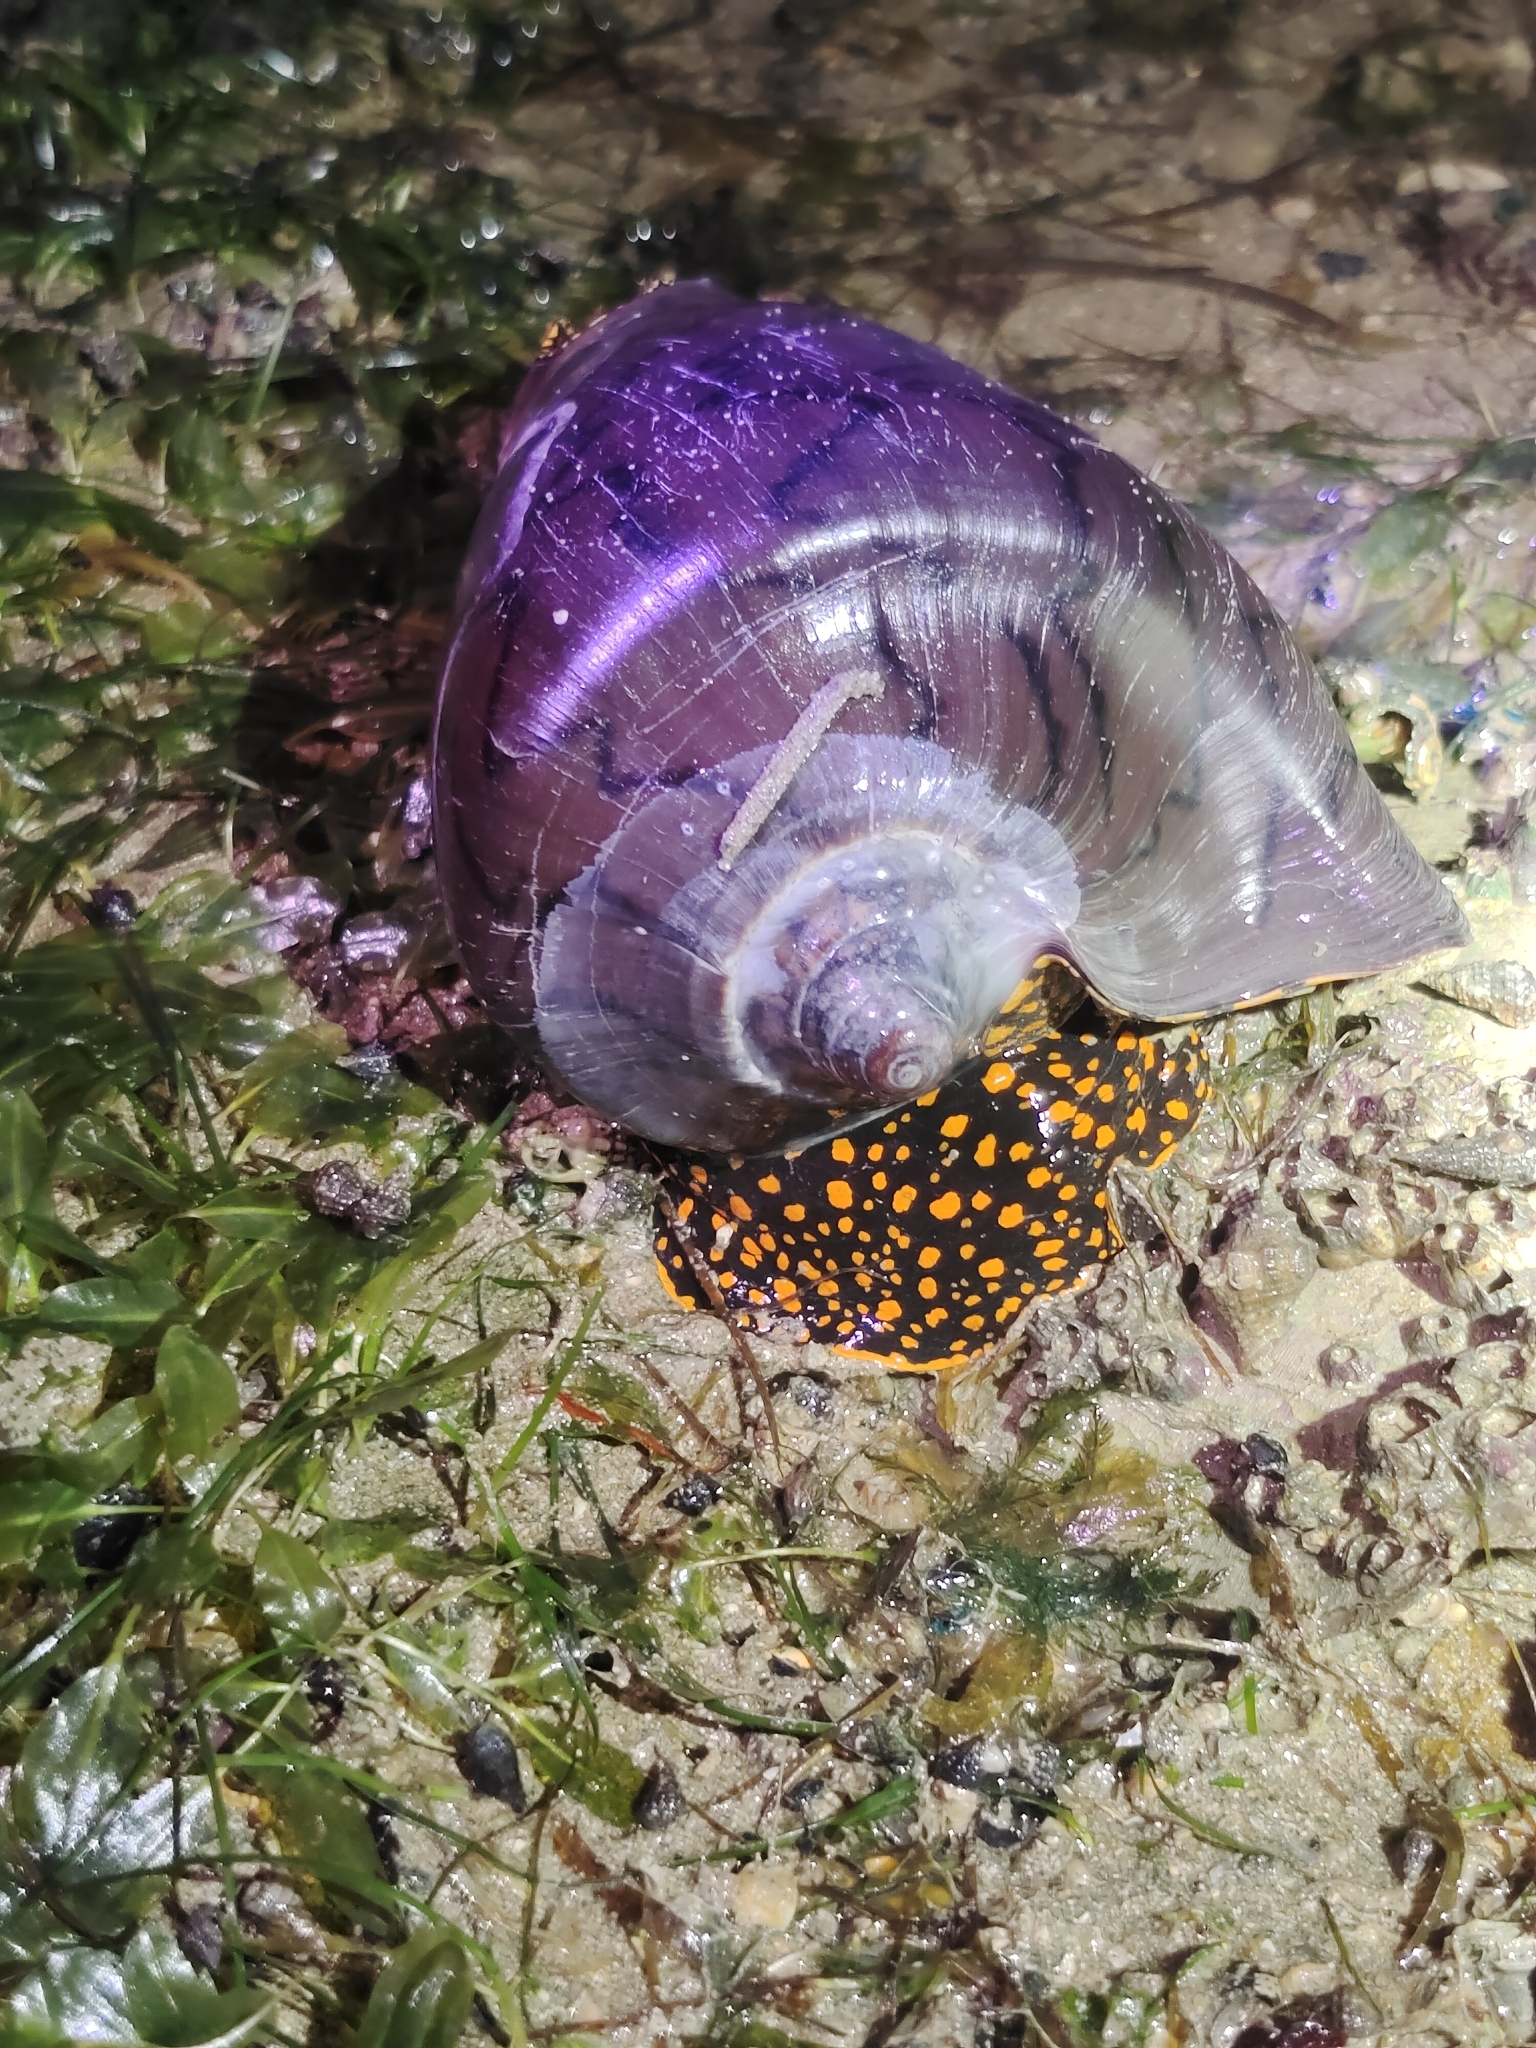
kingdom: Animalia
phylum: Mollusca
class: Gastropoda
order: Neogastropoda
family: Volutidae
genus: Cymbiola
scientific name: Cymbiola nobilis
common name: Noble volute
